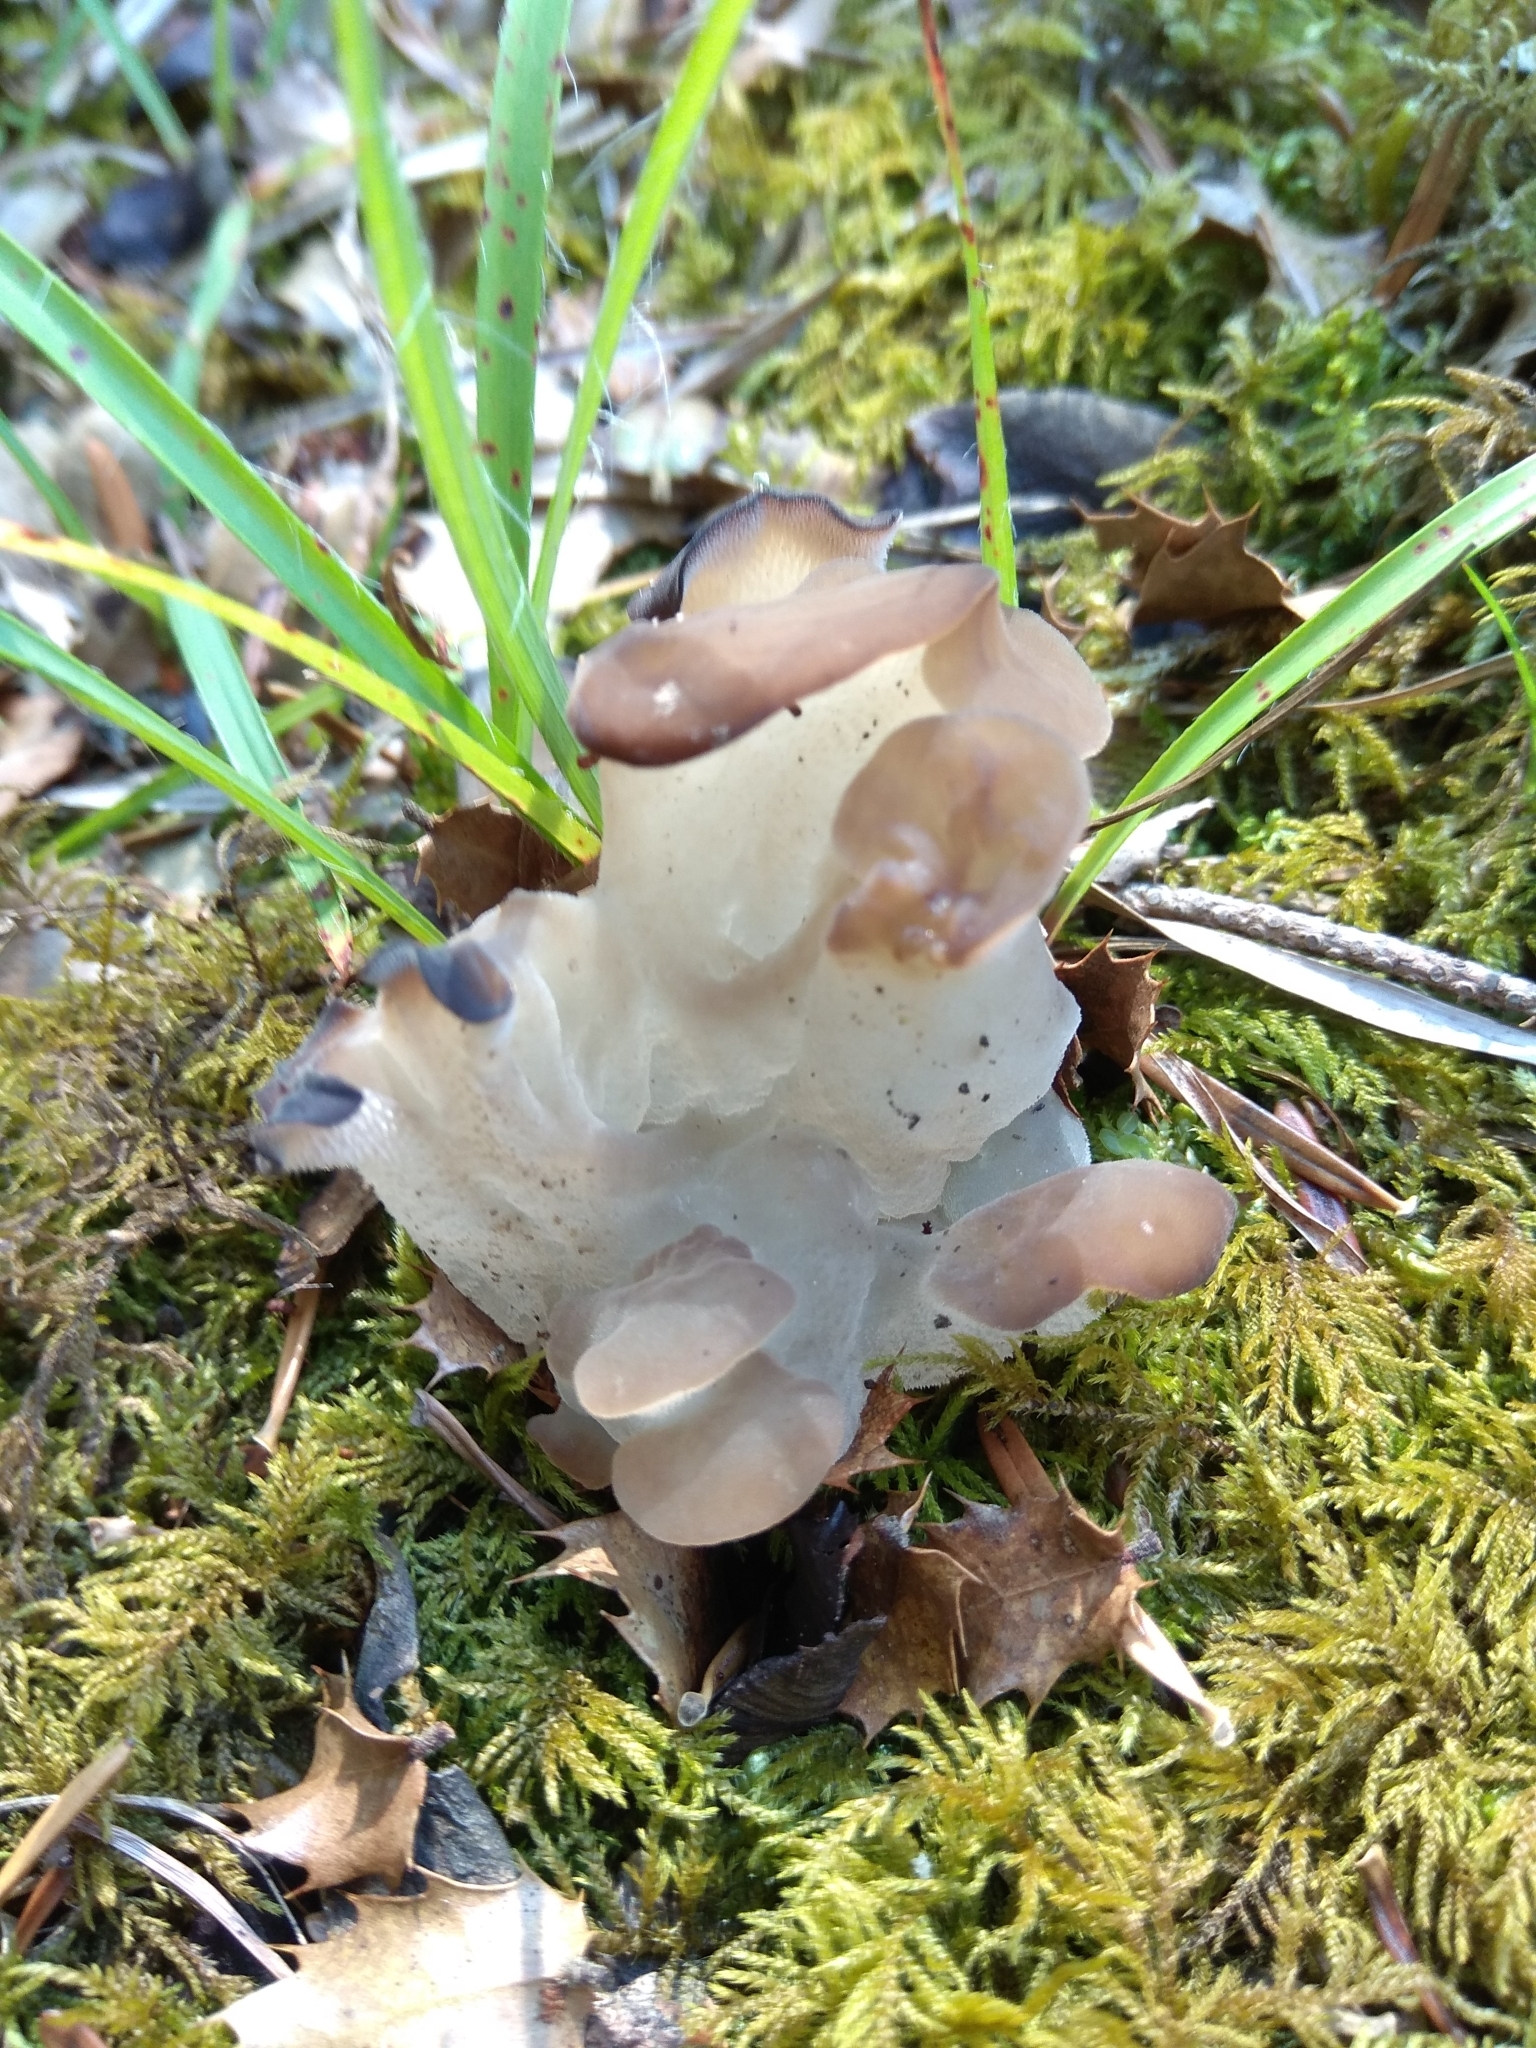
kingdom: Fungi
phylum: Basidiomycota
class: Agaricomycetes
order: Auriculariales
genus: Pseudohydnum
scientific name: Pseudohydnum gelatinosum
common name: Jelly tongue
